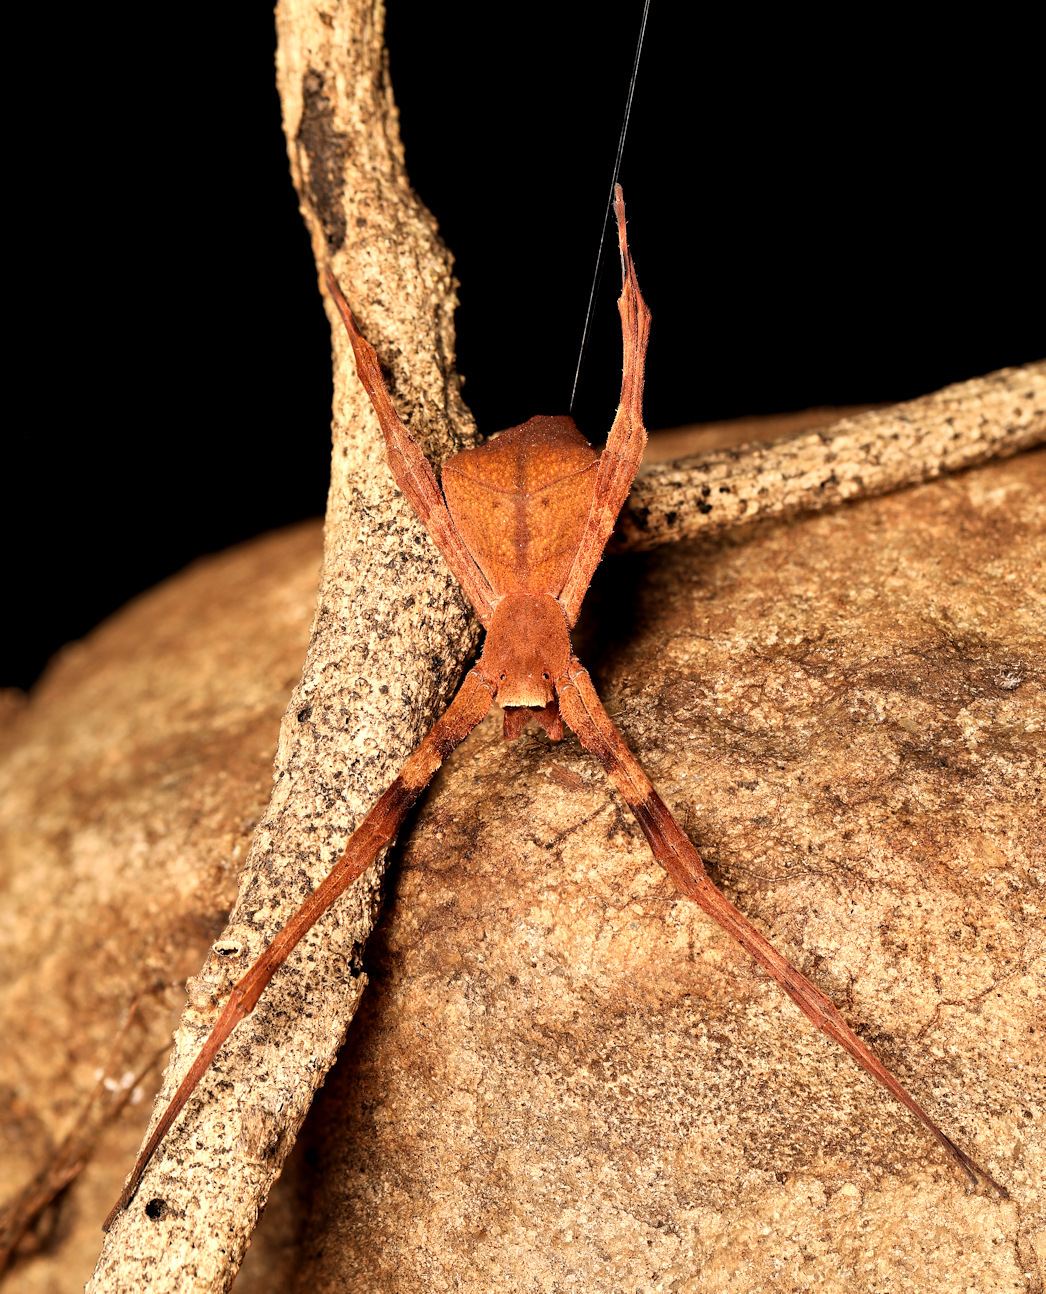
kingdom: Animalia
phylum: Arthropoda
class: Arachnida
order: Araneae
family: Deinopidae
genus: Deinopis
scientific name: Deinopis anchietae
